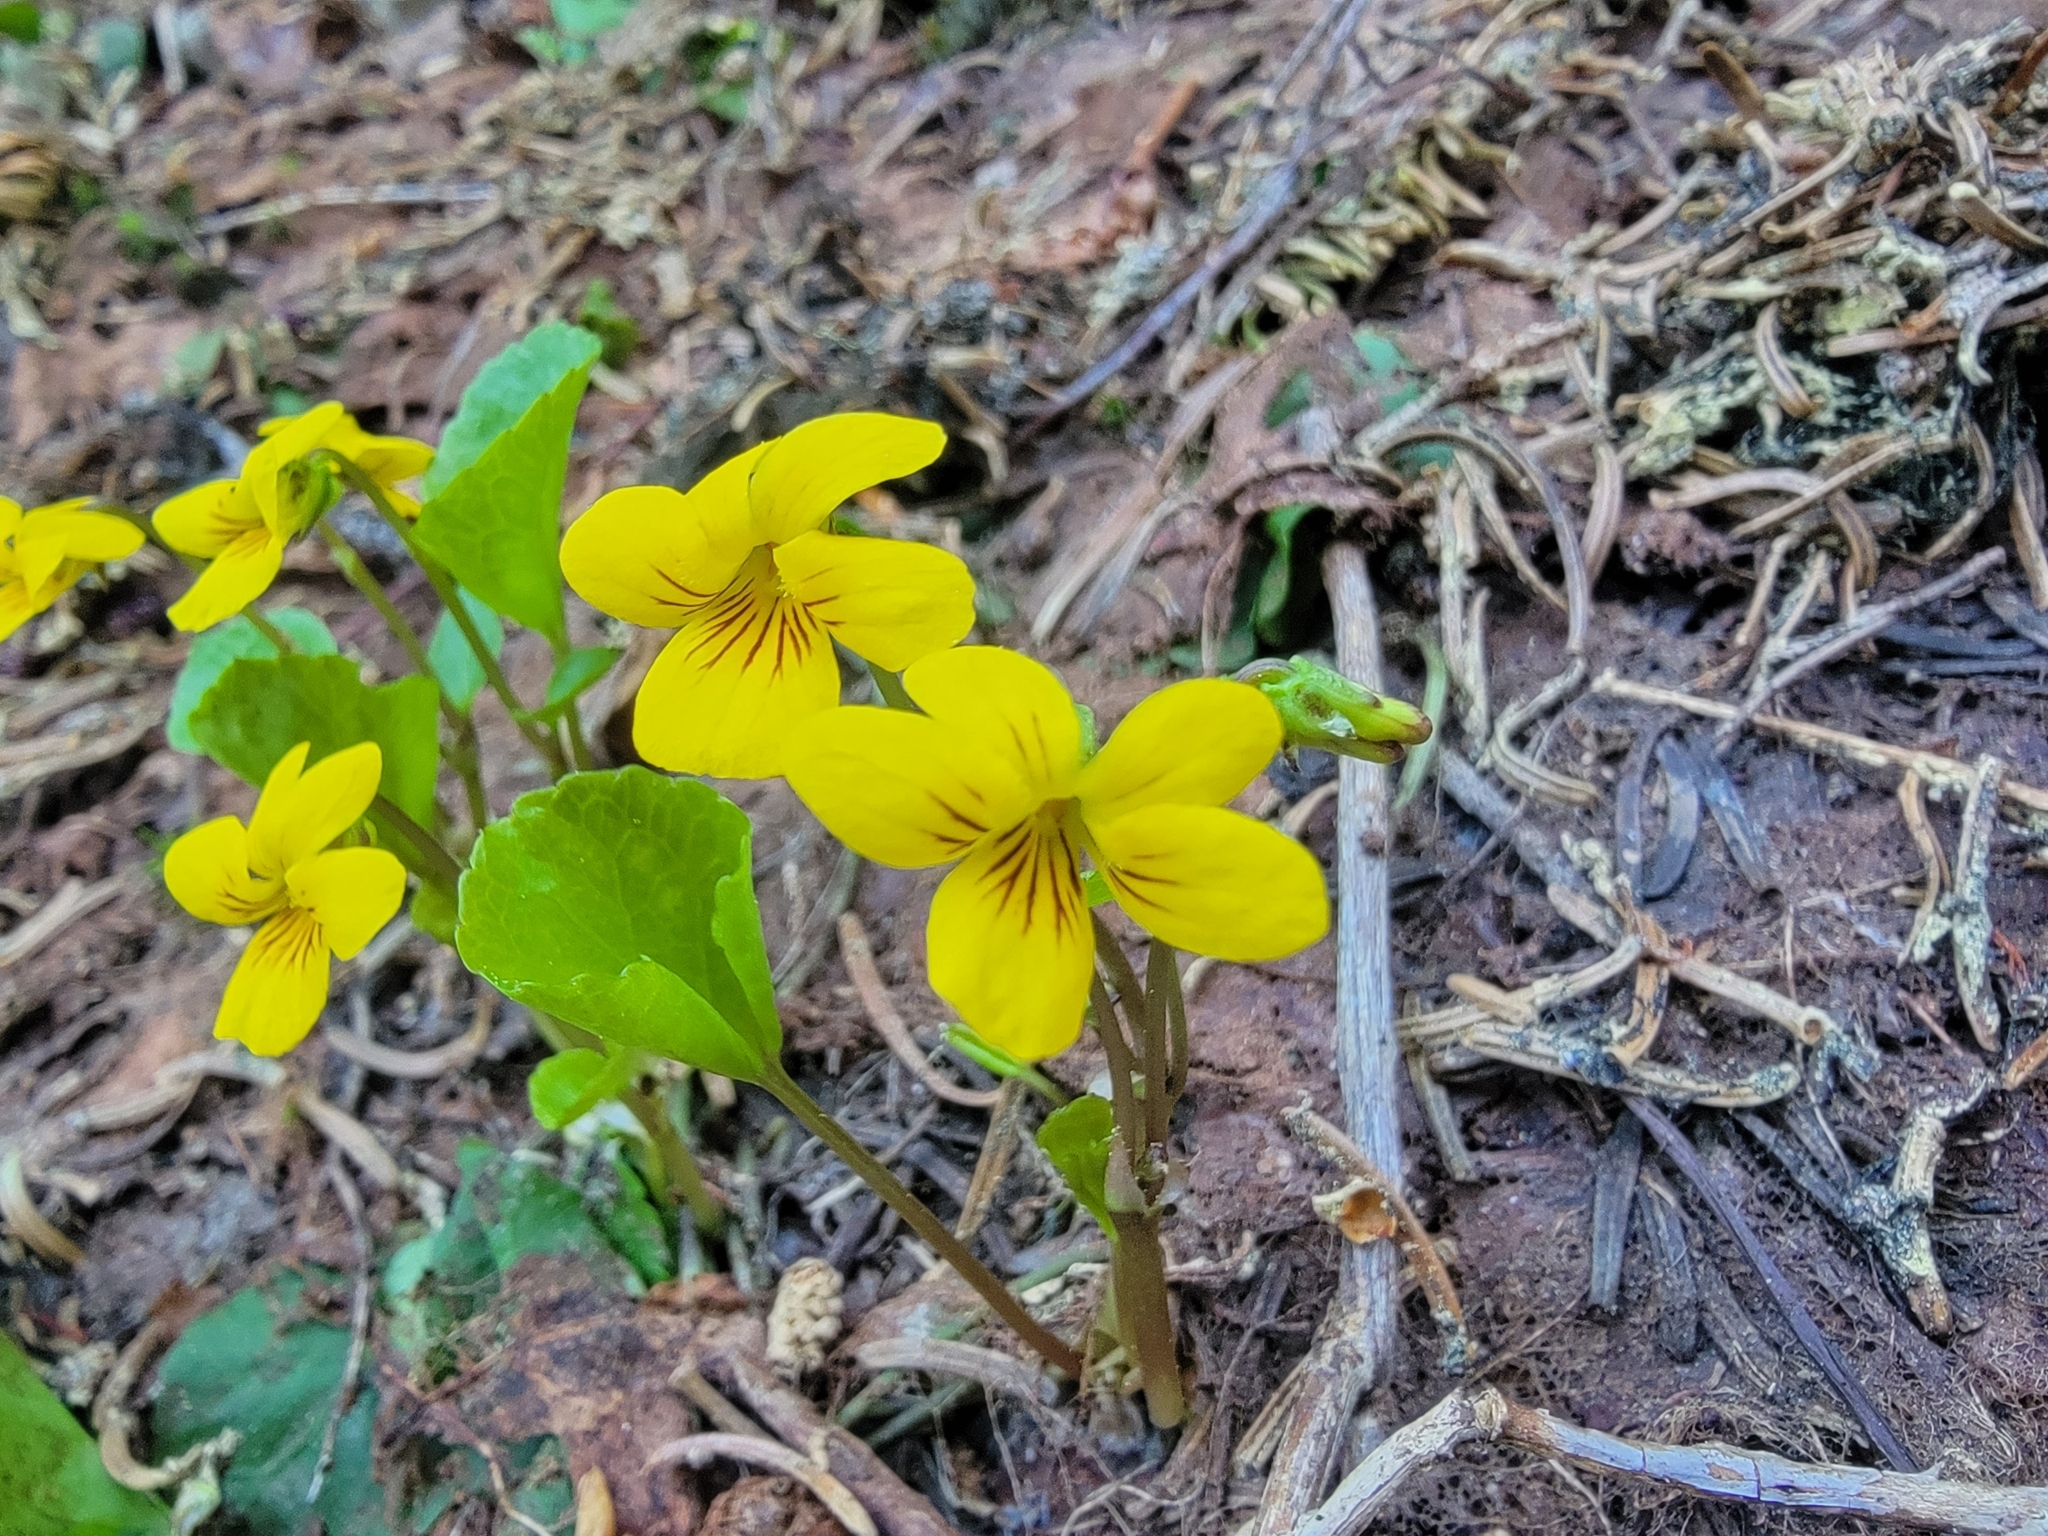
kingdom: Plantae
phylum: Tracheophyta
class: Magnoliopsida
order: Malpighiales
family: Violaceae
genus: Viola
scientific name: Viola orbiculata
